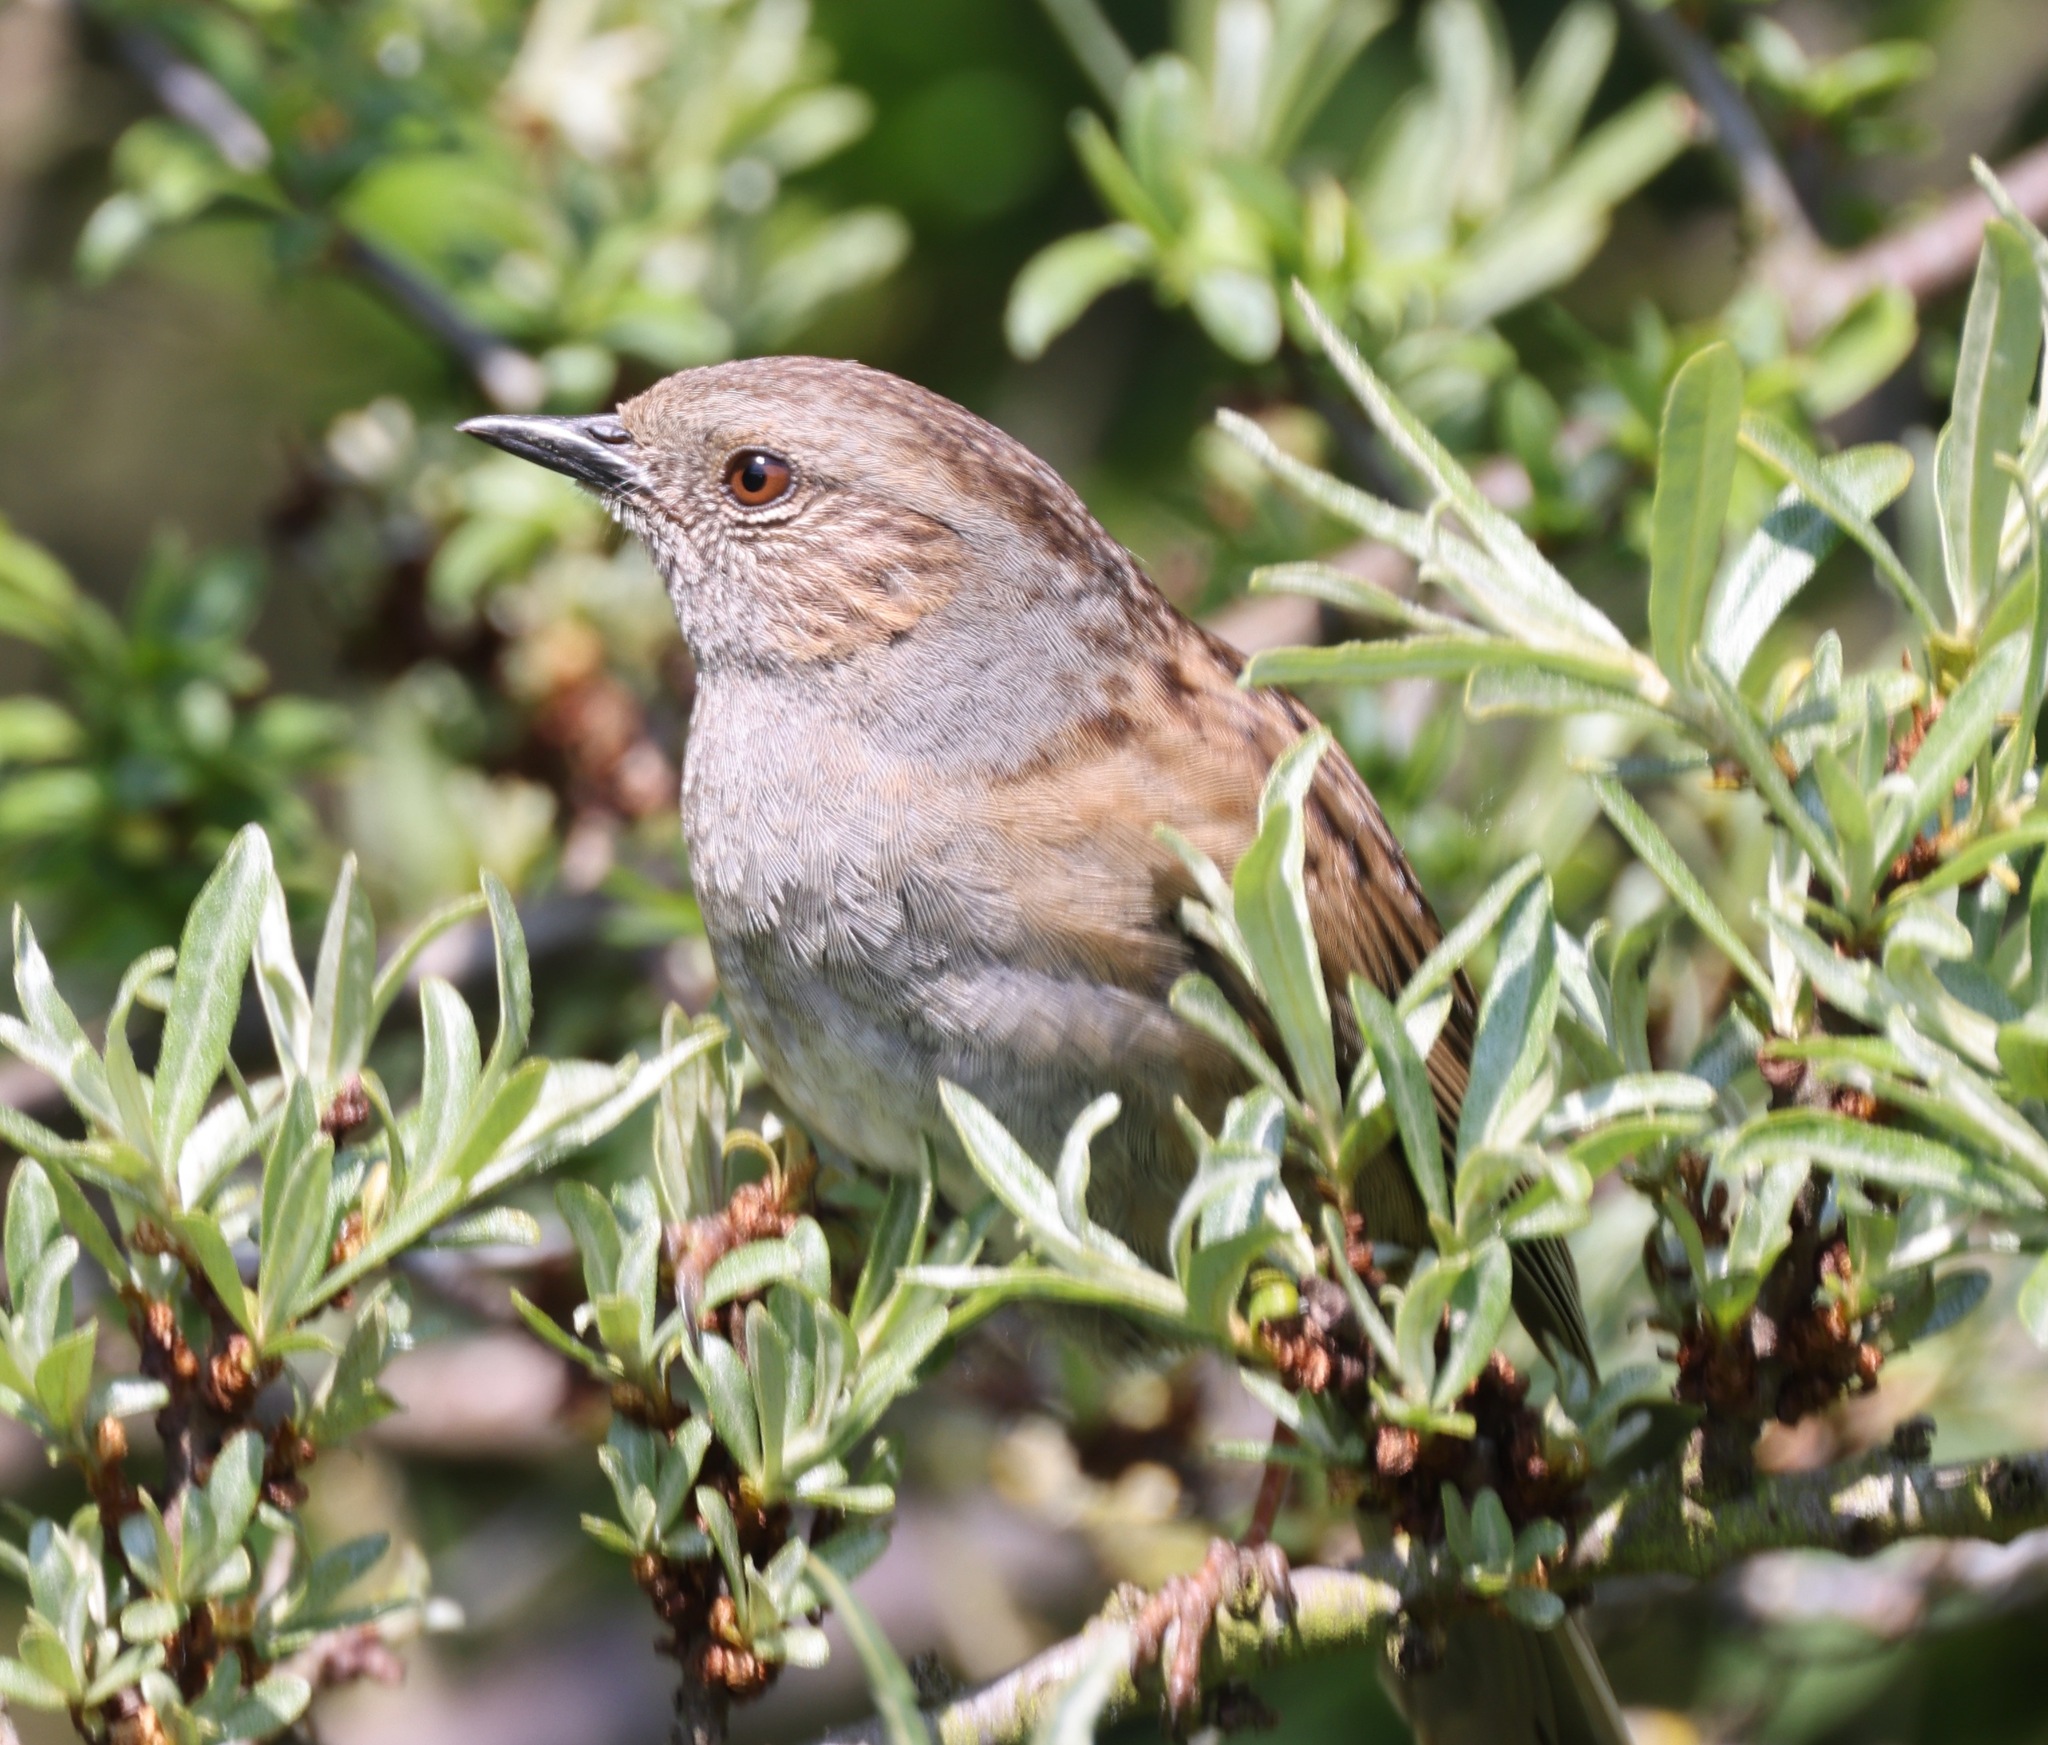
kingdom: Animalia
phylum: Chordata
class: Aves
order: Passeriformes
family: Prunellidae
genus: Prunella
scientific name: Prunella modularis
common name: Dunnock
